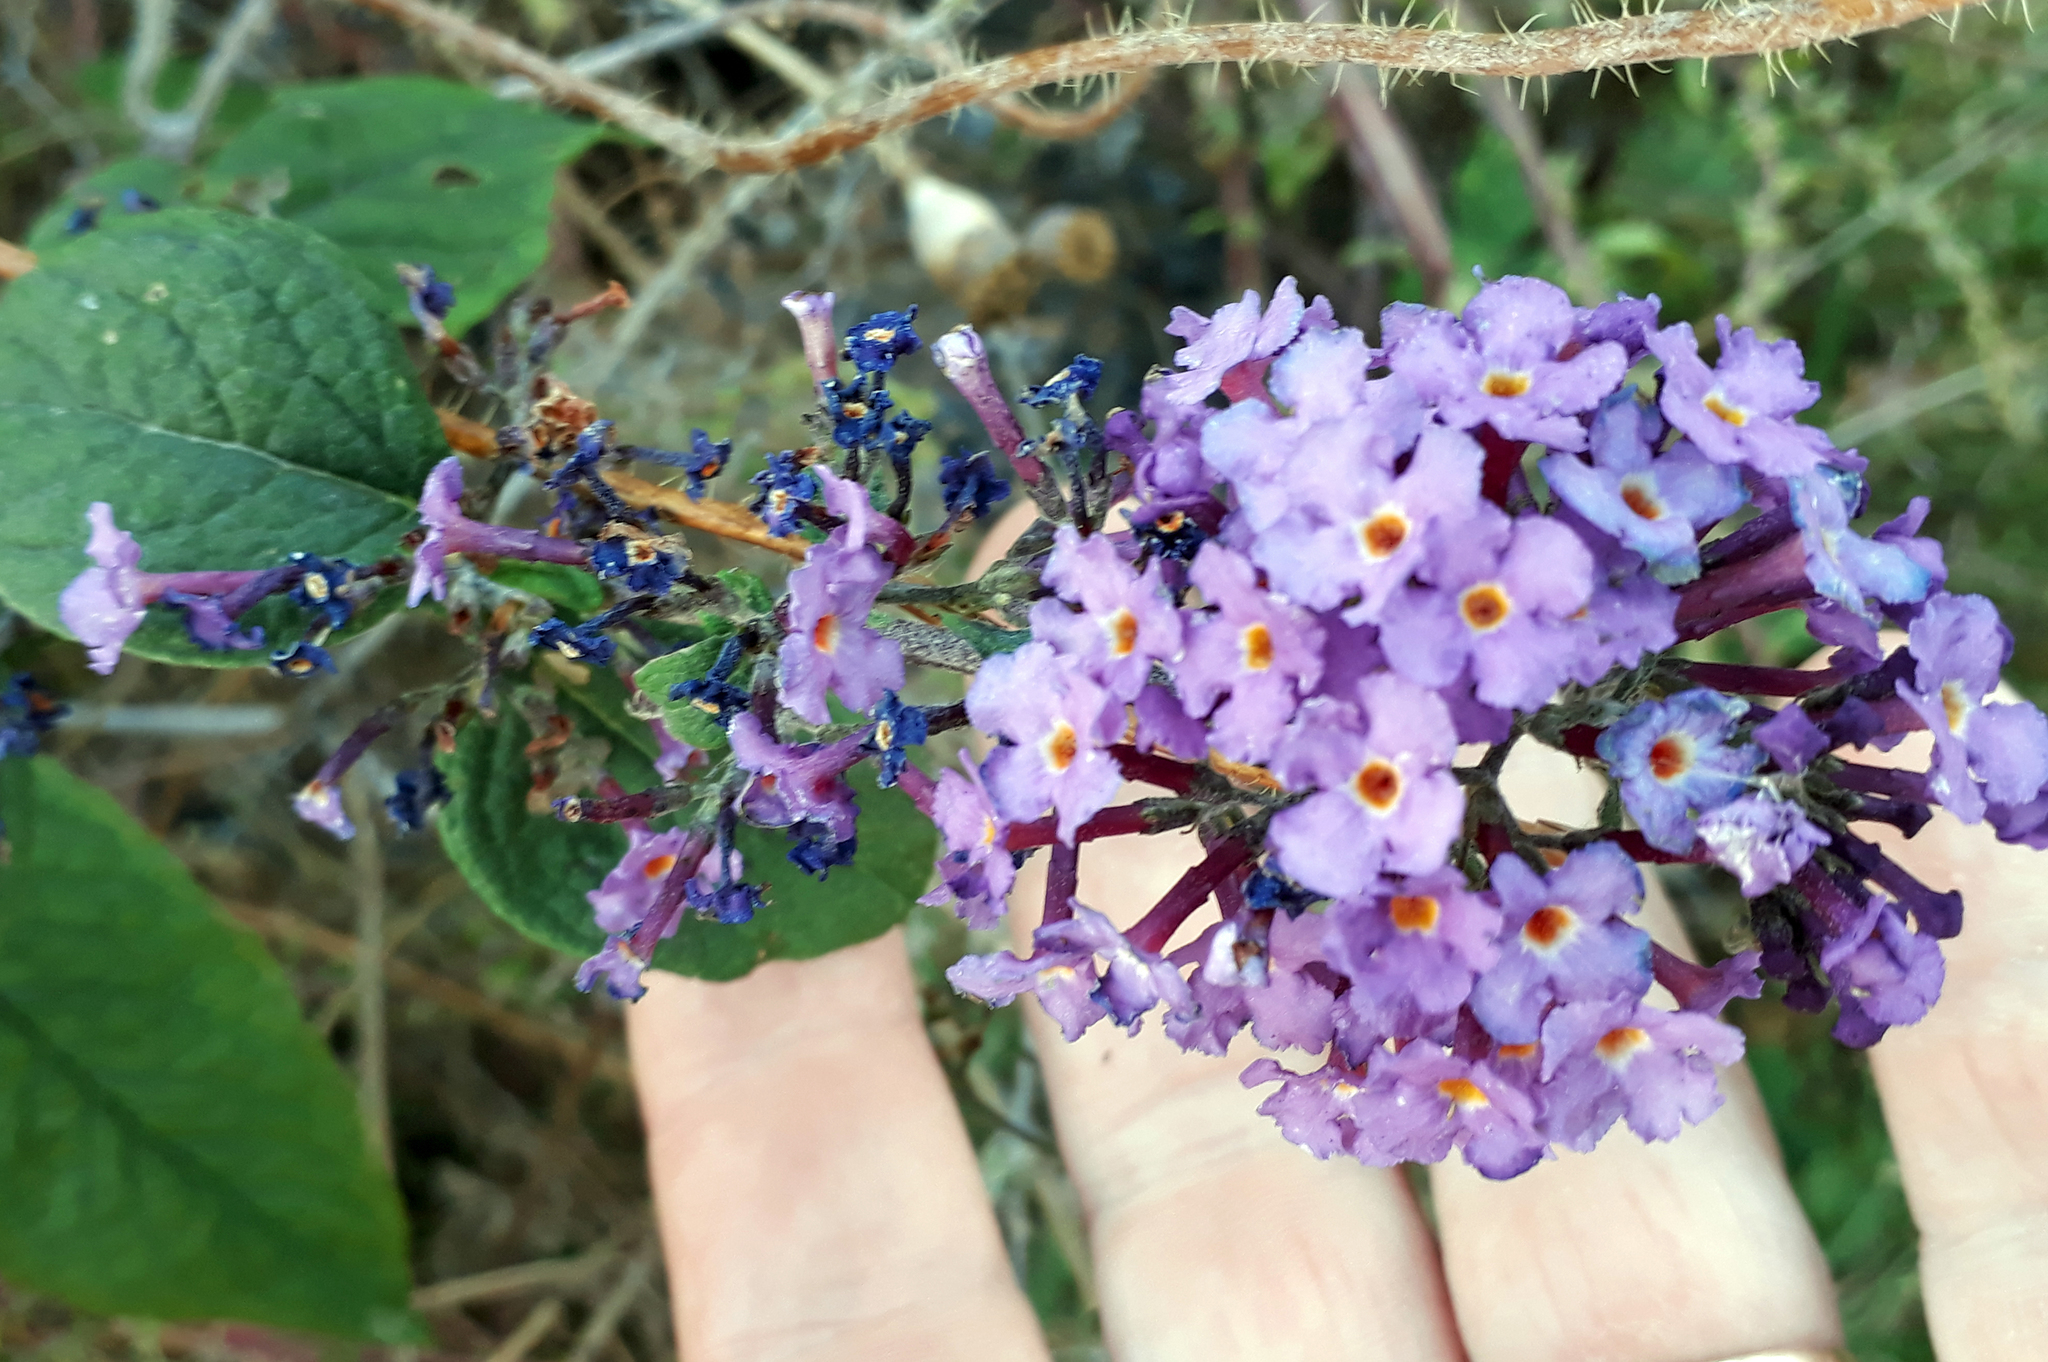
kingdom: Plantae
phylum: Tracheophyta
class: Magnoliopsida
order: Lamiales
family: Scrophulariaceae
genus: Buddleja
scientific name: Buddleja davidii
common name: Butterfly-bush
